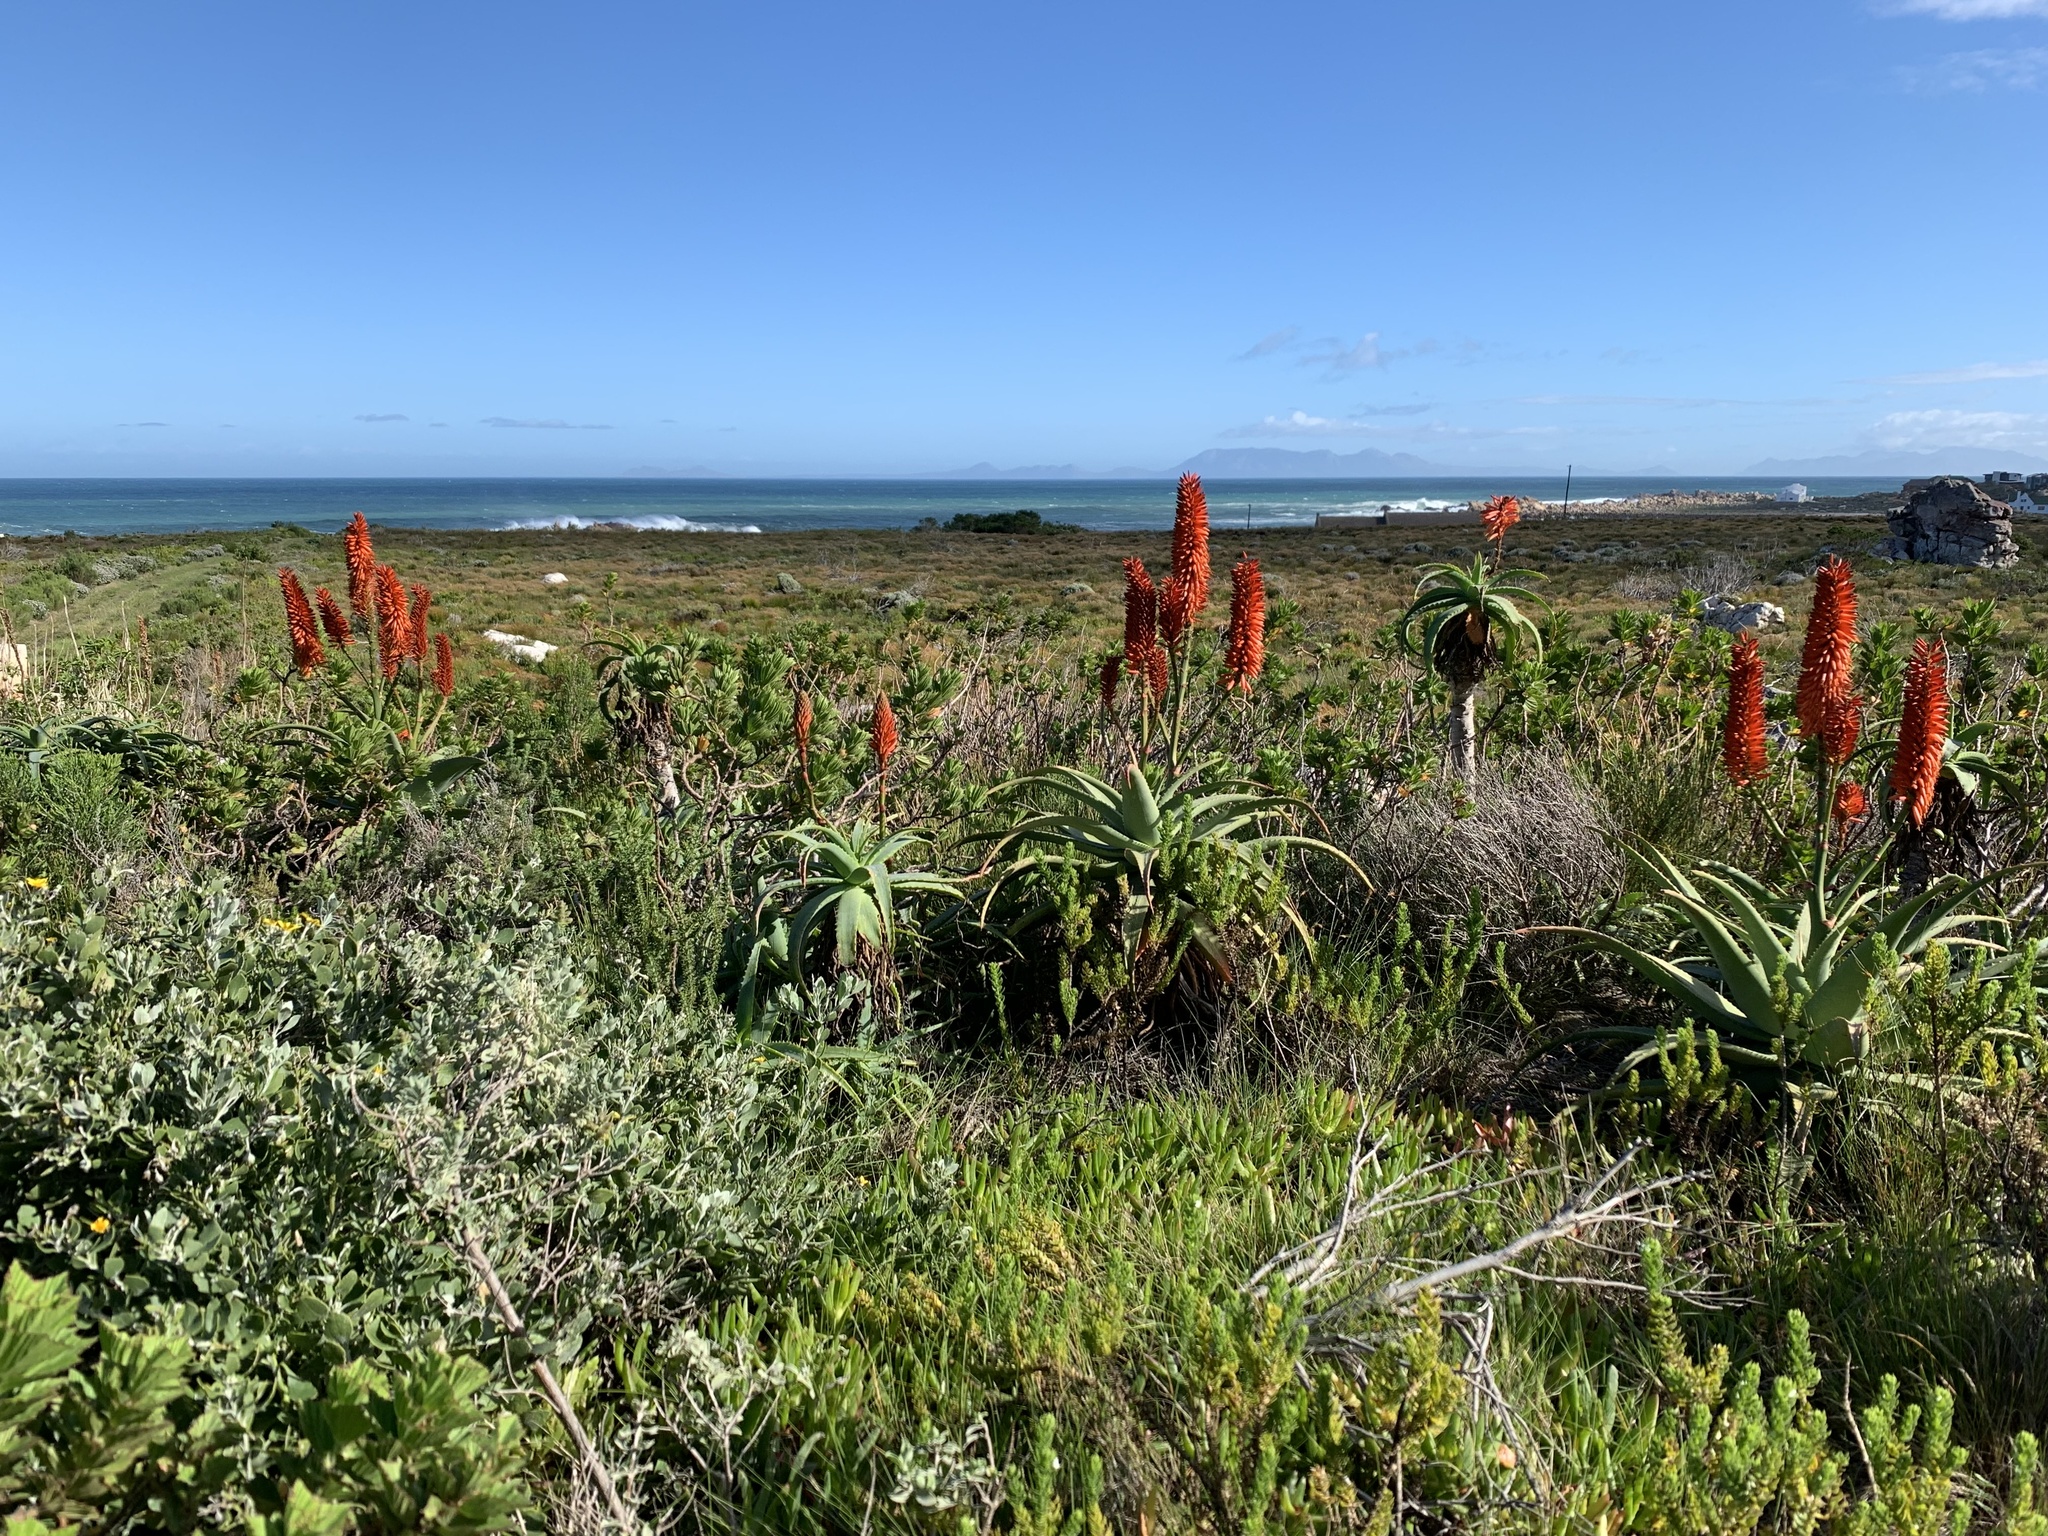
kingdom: Plantae
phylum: Tracheophyta
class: Liliopsida
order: Asparagales
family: Asphodelaceae
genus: Aloe
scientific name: Aloe
